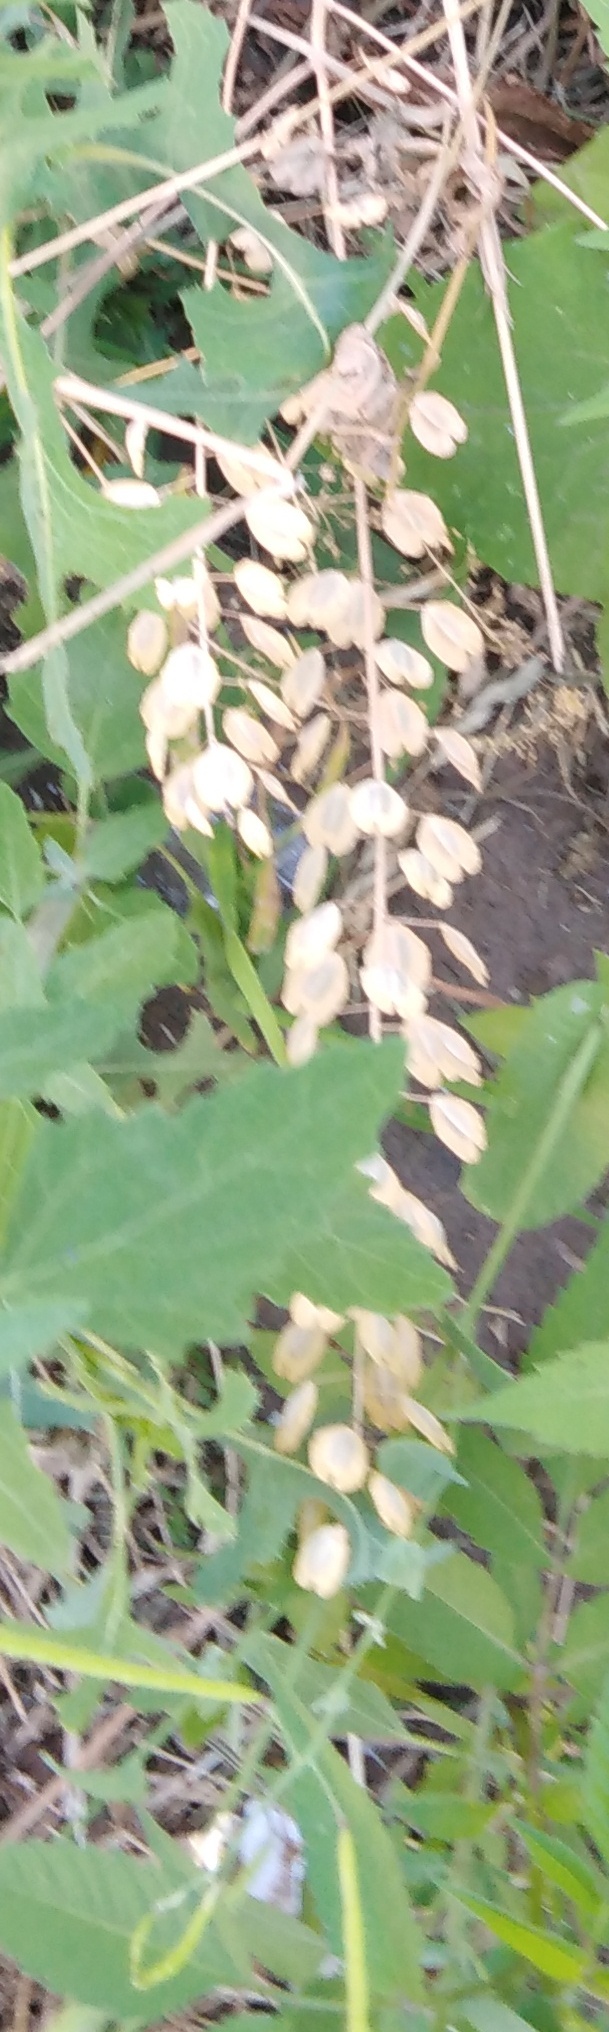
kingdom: Plantae
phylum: Tracheophyta
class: Magnoliopsida
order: Brassicales
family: Brassicaceae
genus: Thlaspi
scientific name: Thlaspi arvense
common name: Field pennycress
